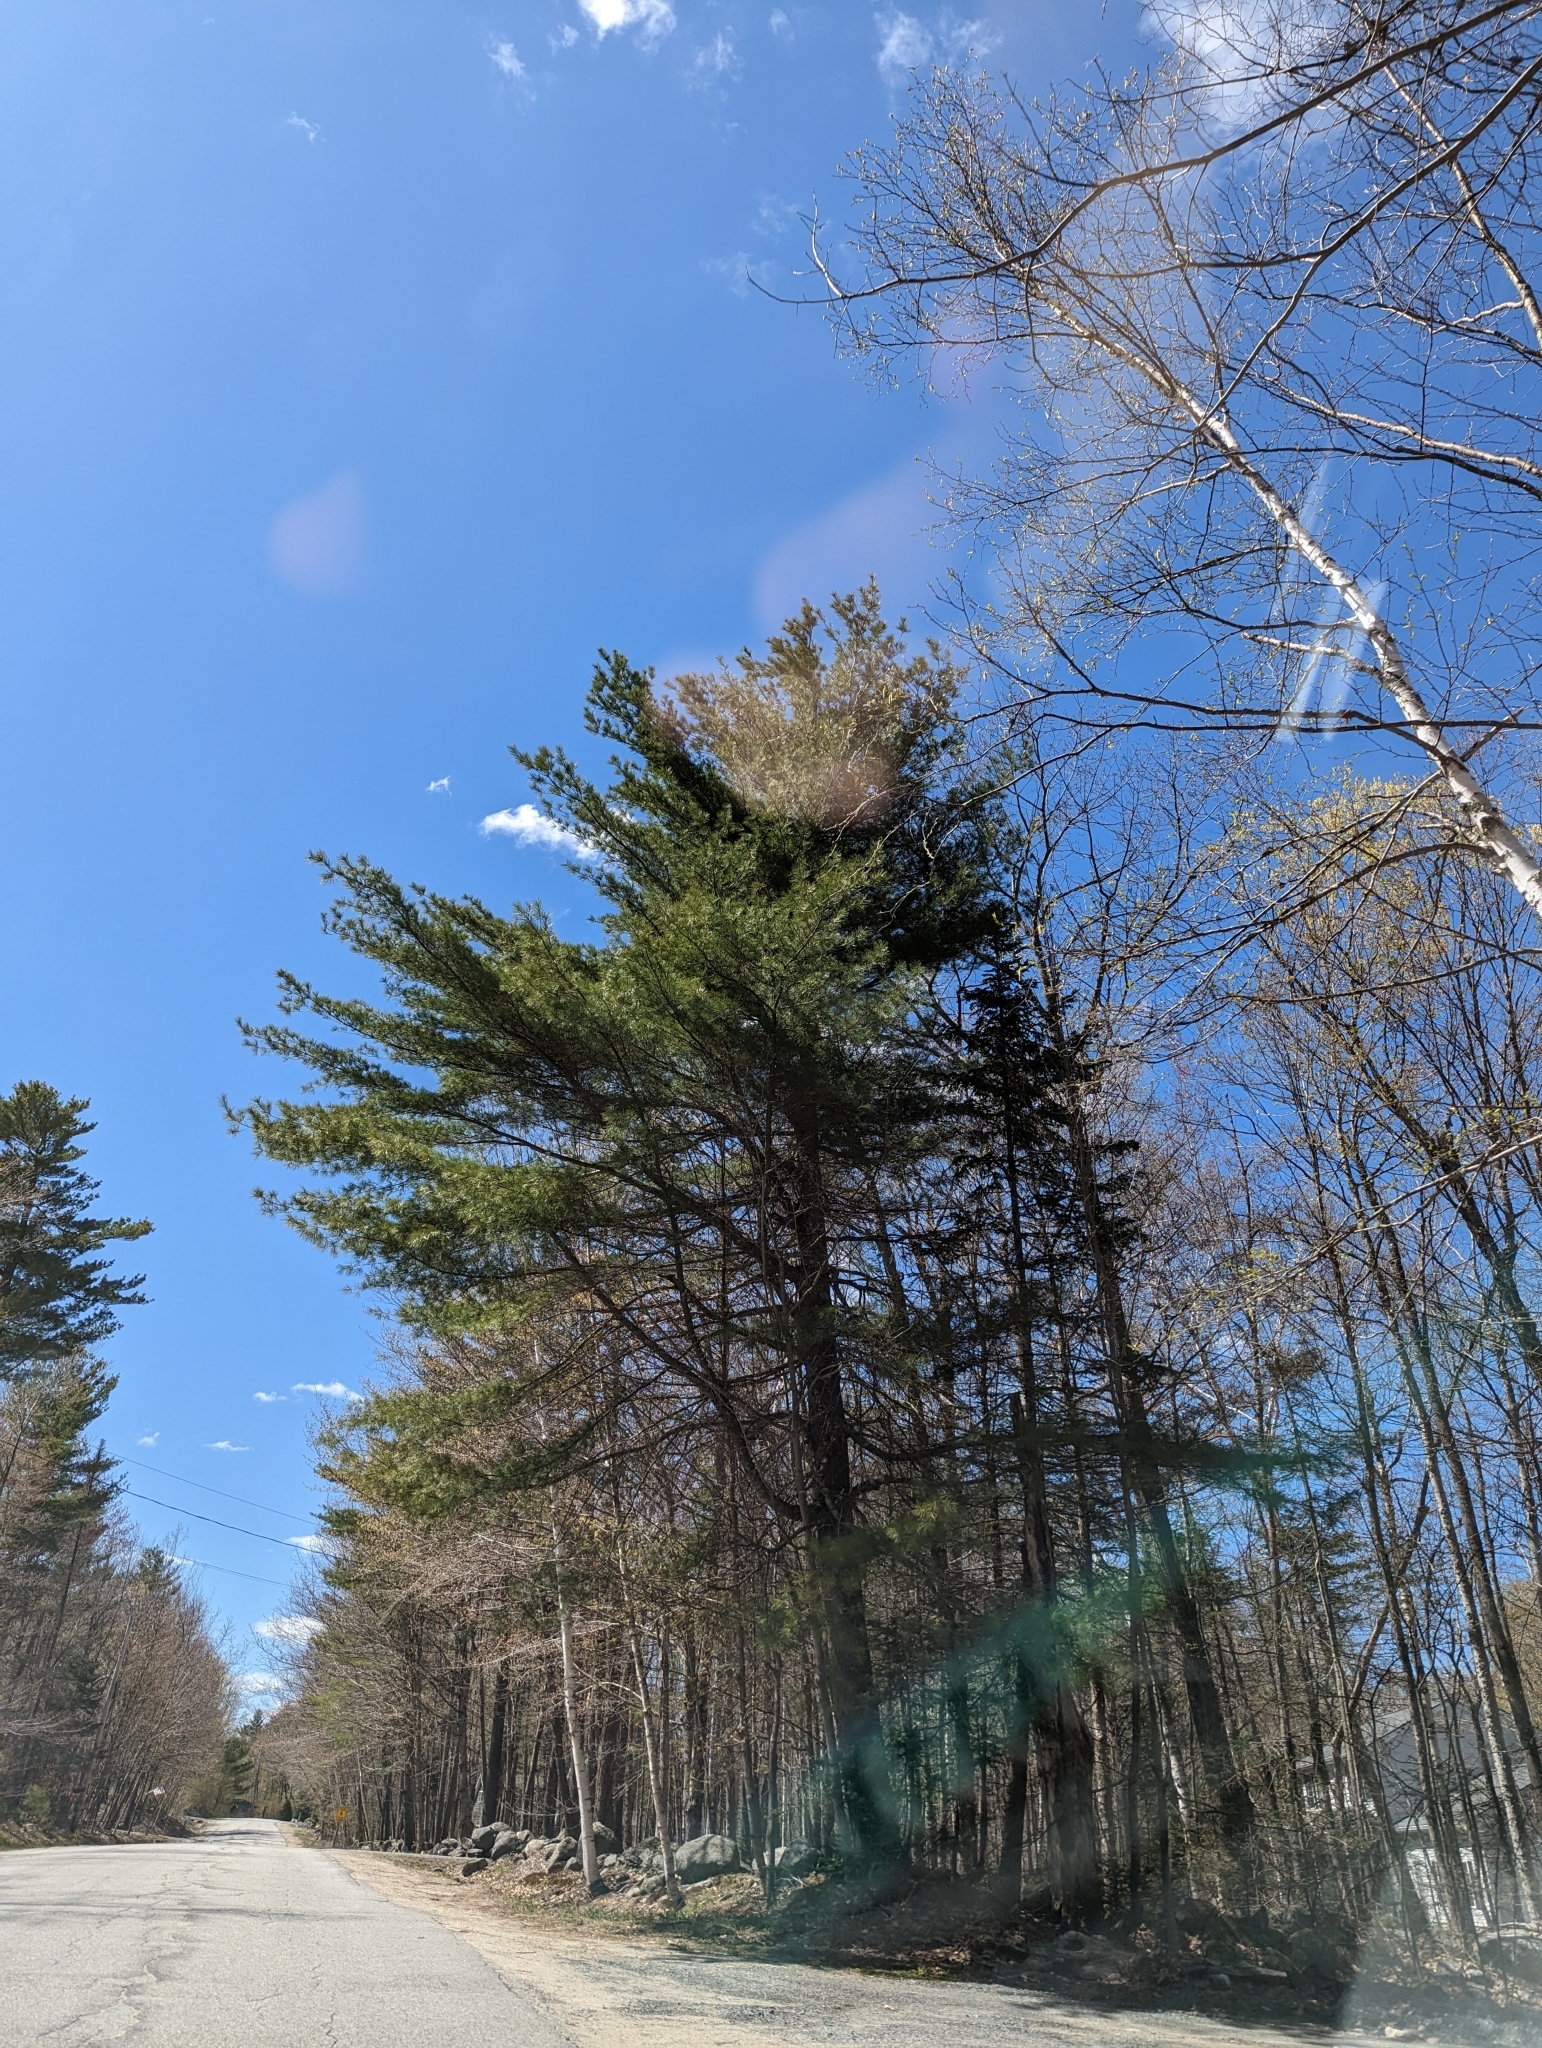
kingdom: Plantae
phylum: Tracheophyta
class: Pinopsida
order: Pinales
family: Pinaceae
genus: Pinus
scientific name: Pinus strobus
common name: Weymouth pine
